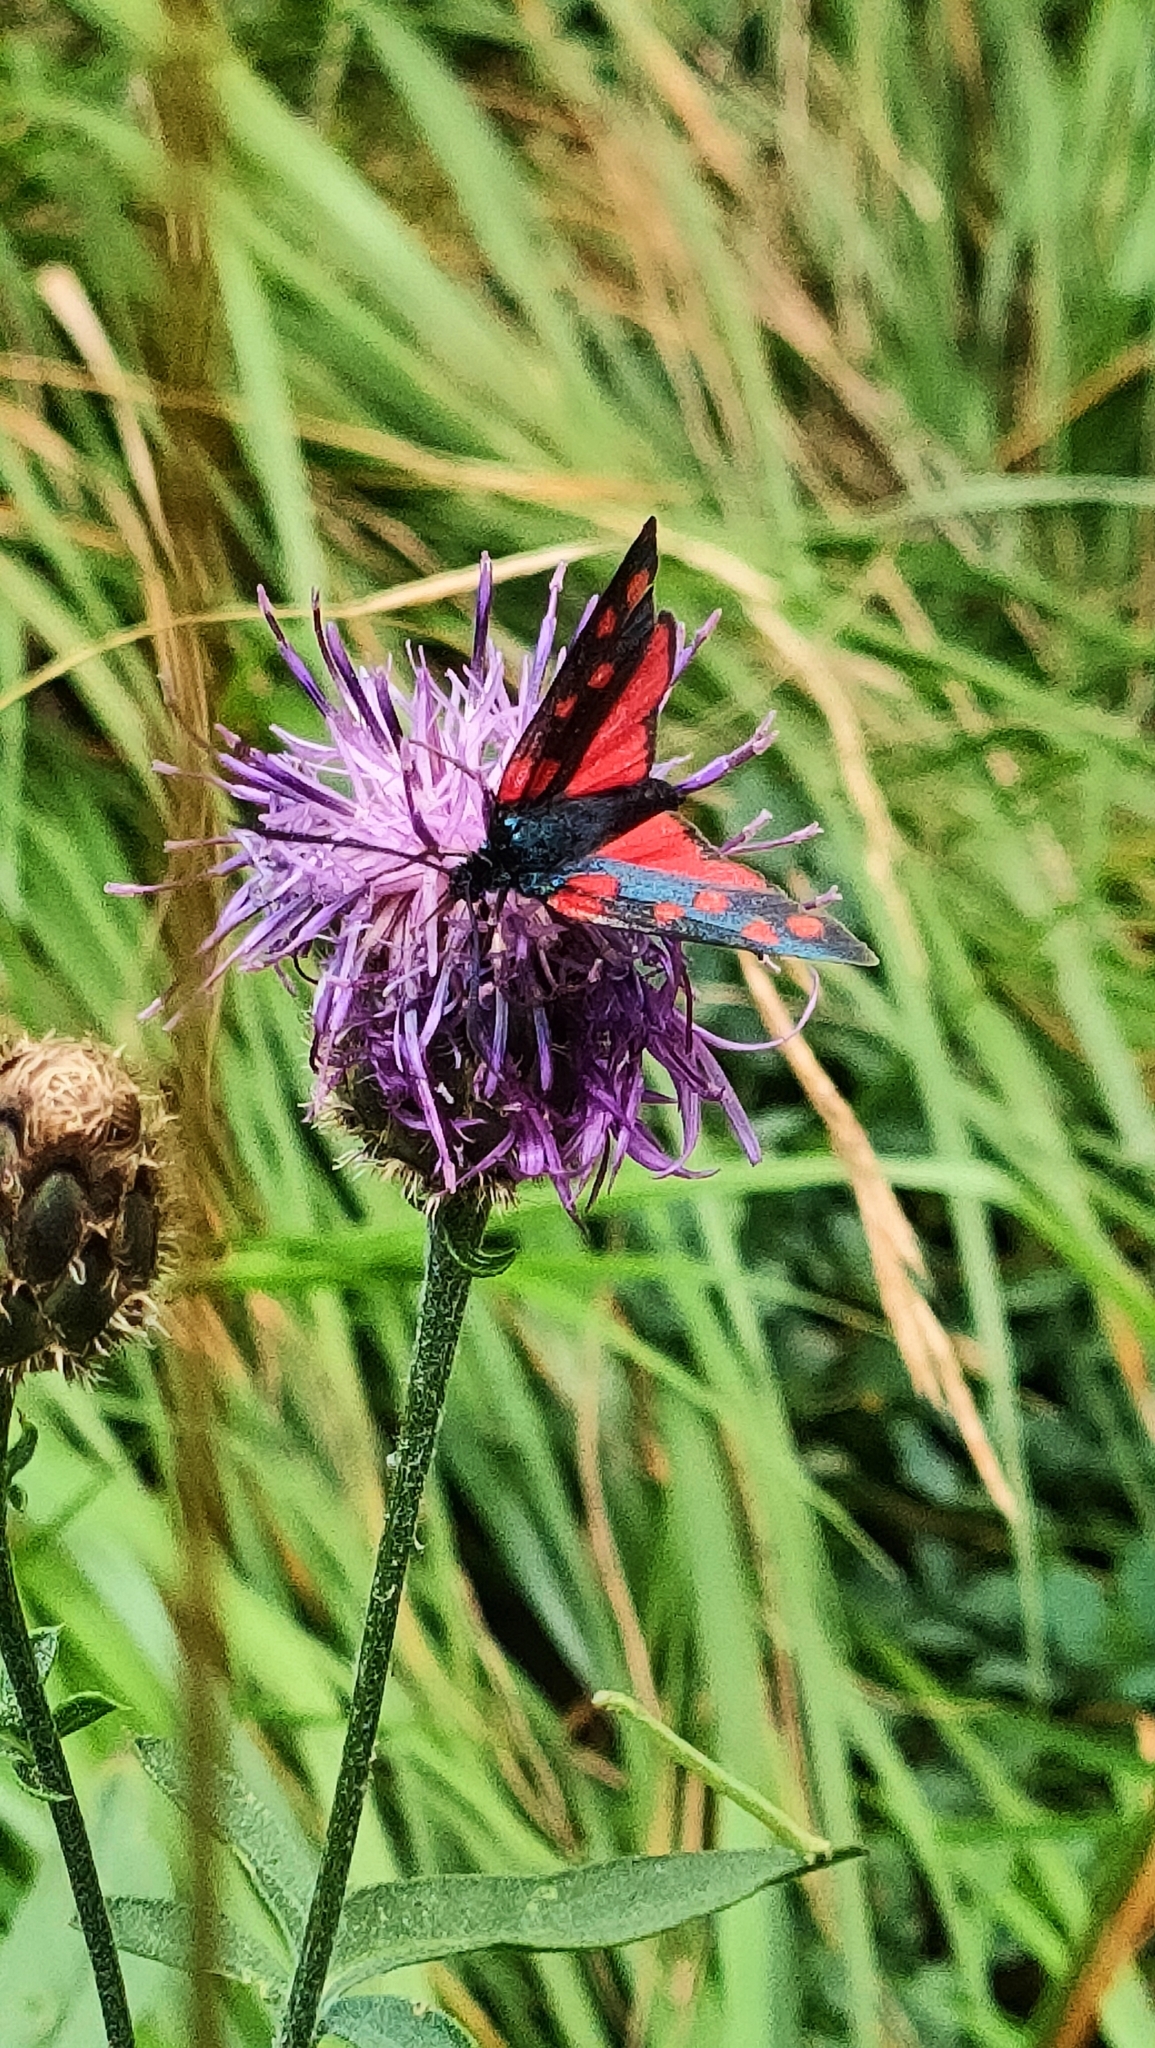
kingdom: Animalia
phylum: Arthropoda
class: Insecta
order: Lepidoptera
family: Zygaenidae
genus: Zygaena
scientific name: Zygaena transalpina
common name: Southern six spot burnet
